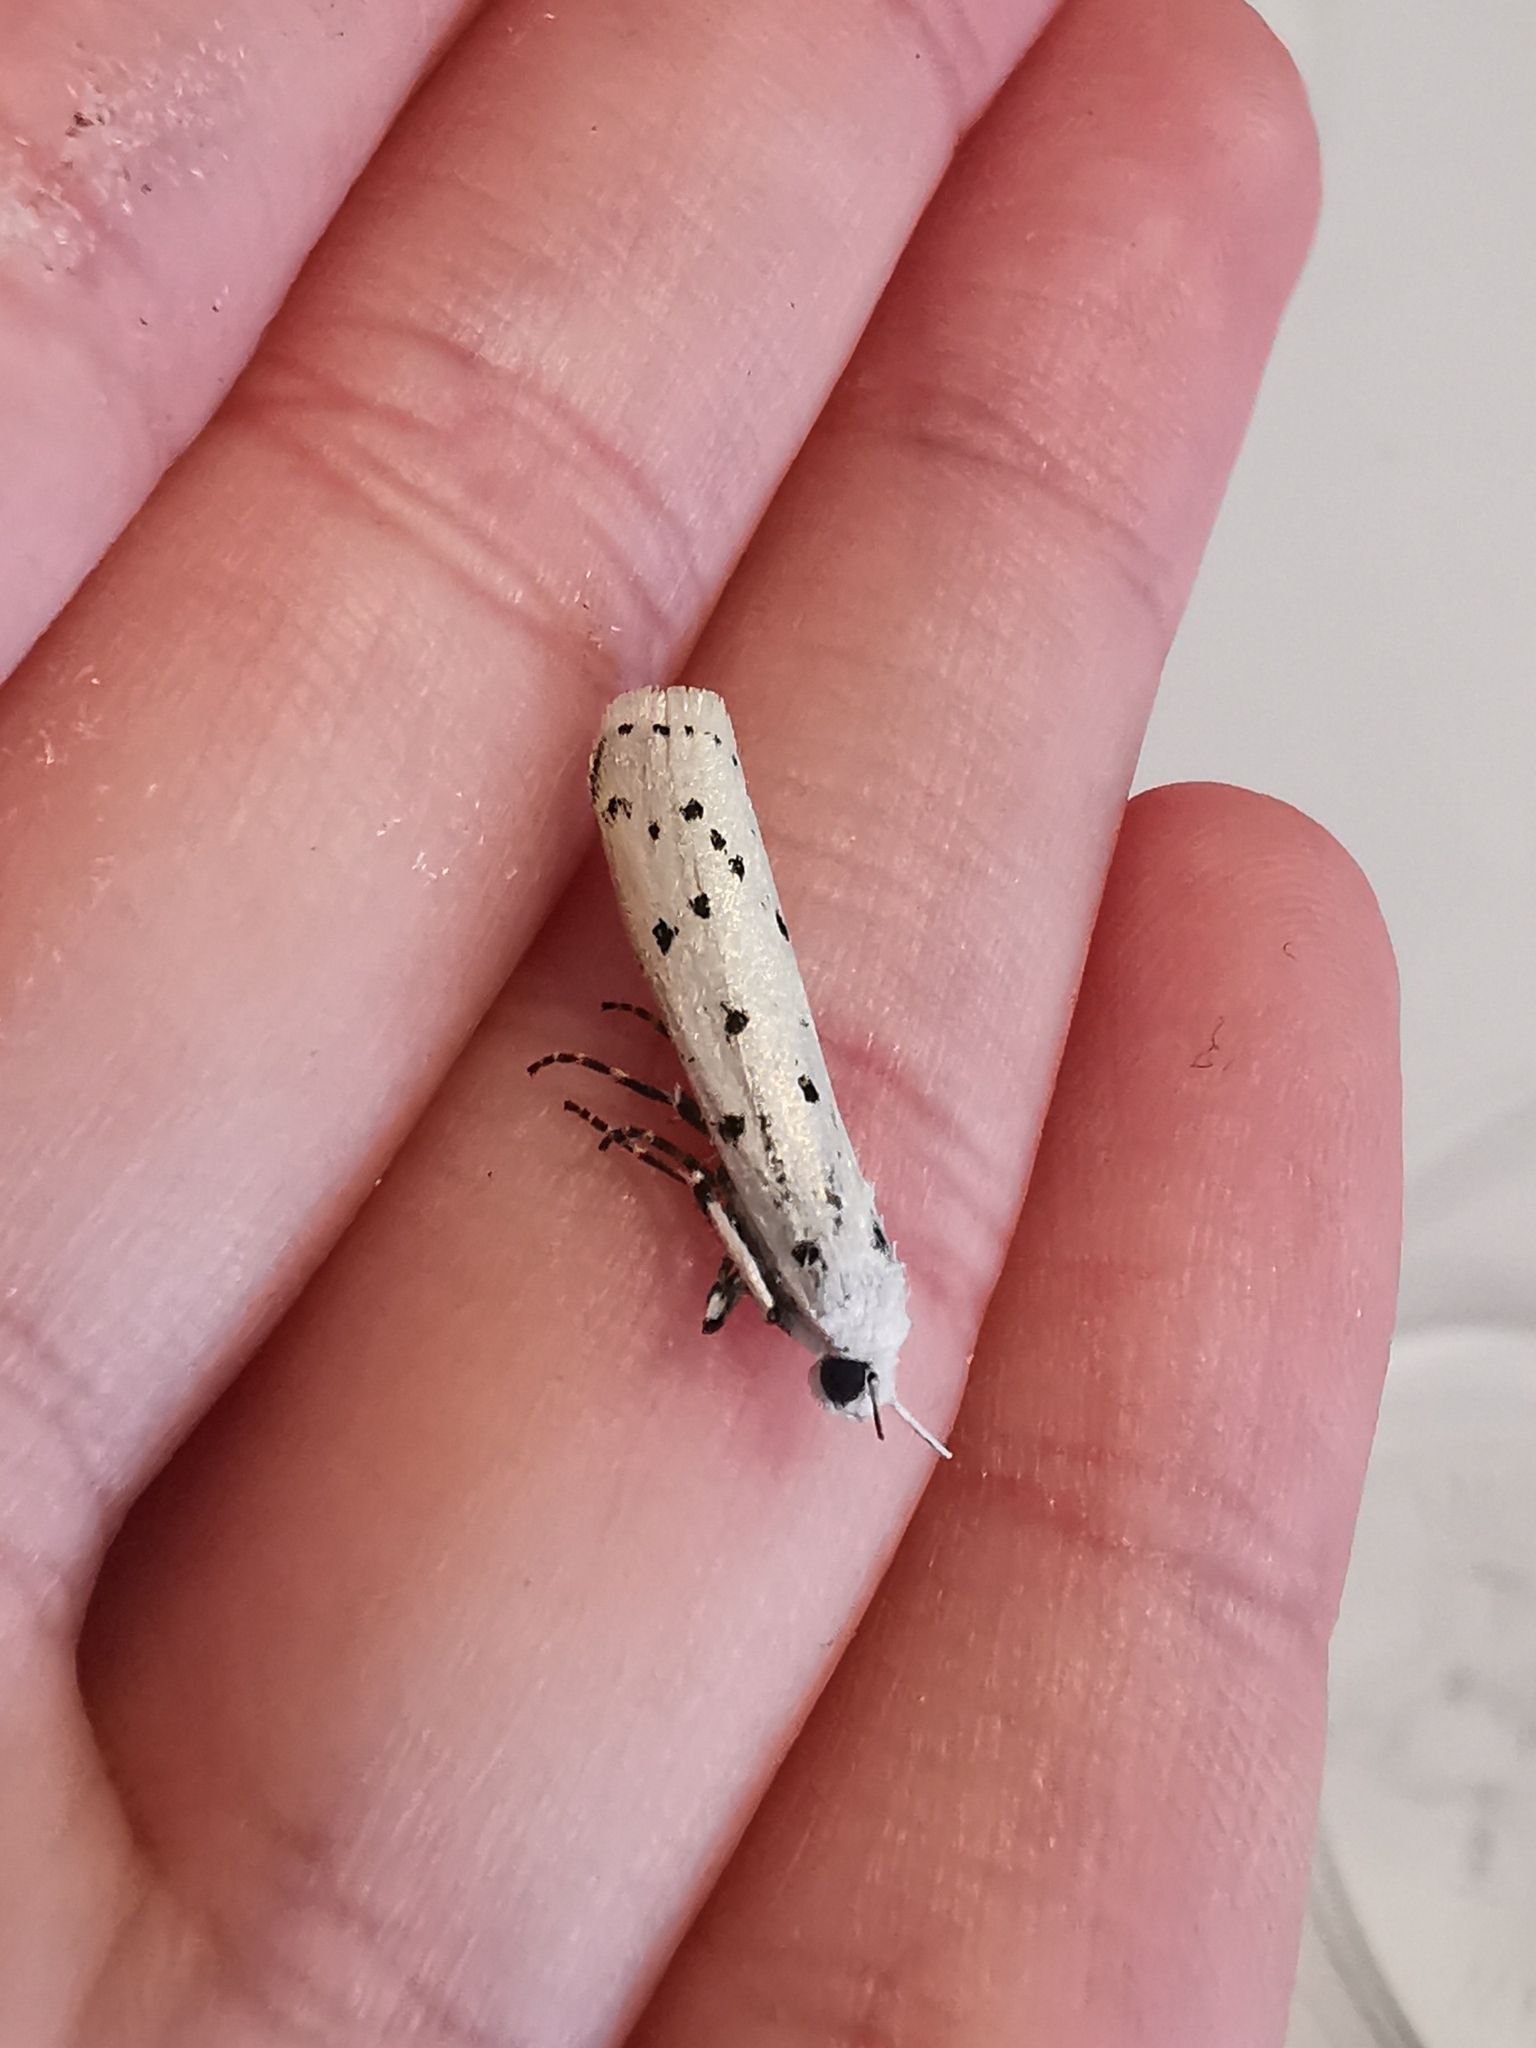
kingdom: Animalia
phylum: Arthropoda
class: Insecta
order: Lepidoptera
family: Pyralidae
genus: Myelois
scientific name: Myelois circumvoluta
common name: Thistle ermine
